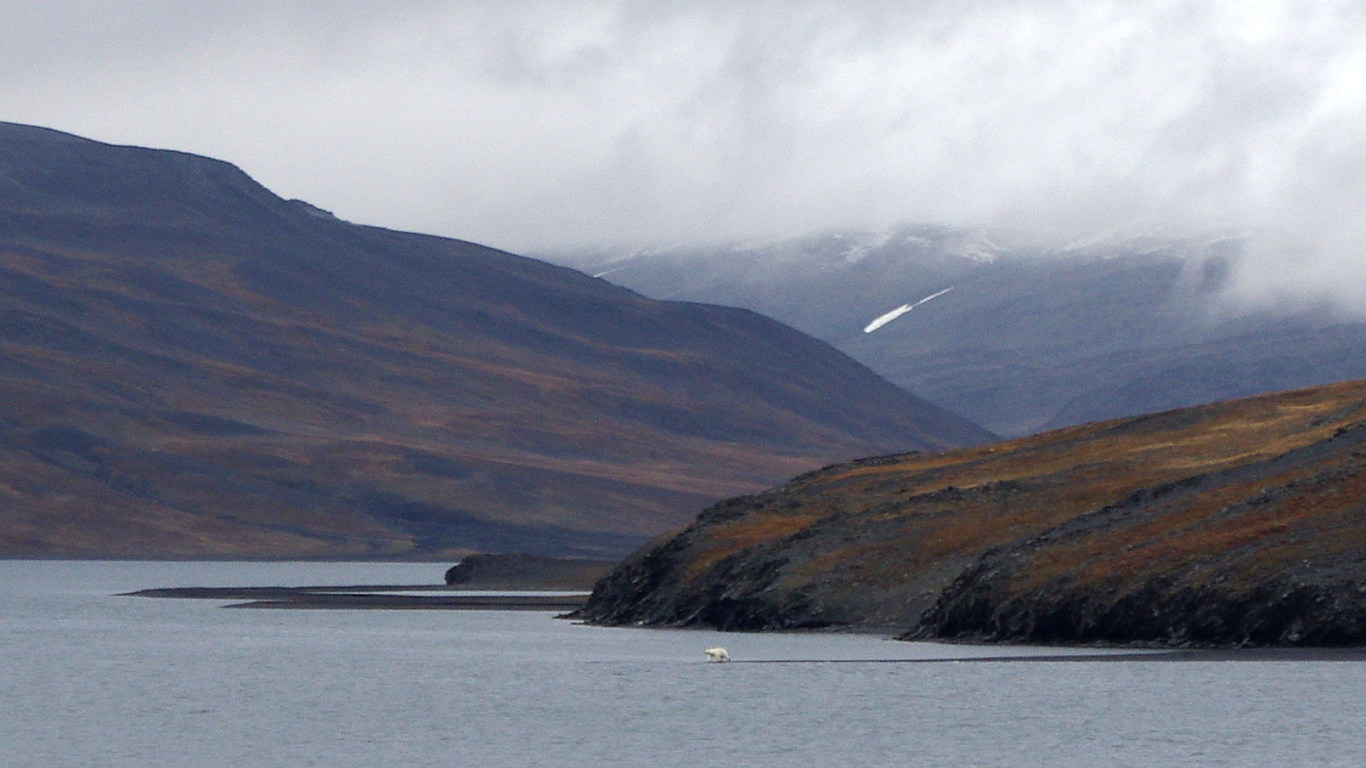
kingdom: Animalia
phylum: Chordata
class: Mammalia
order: Carnivora
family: Ursidae
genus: Ursus
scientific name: Ursus maritimus
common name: Polar bear
